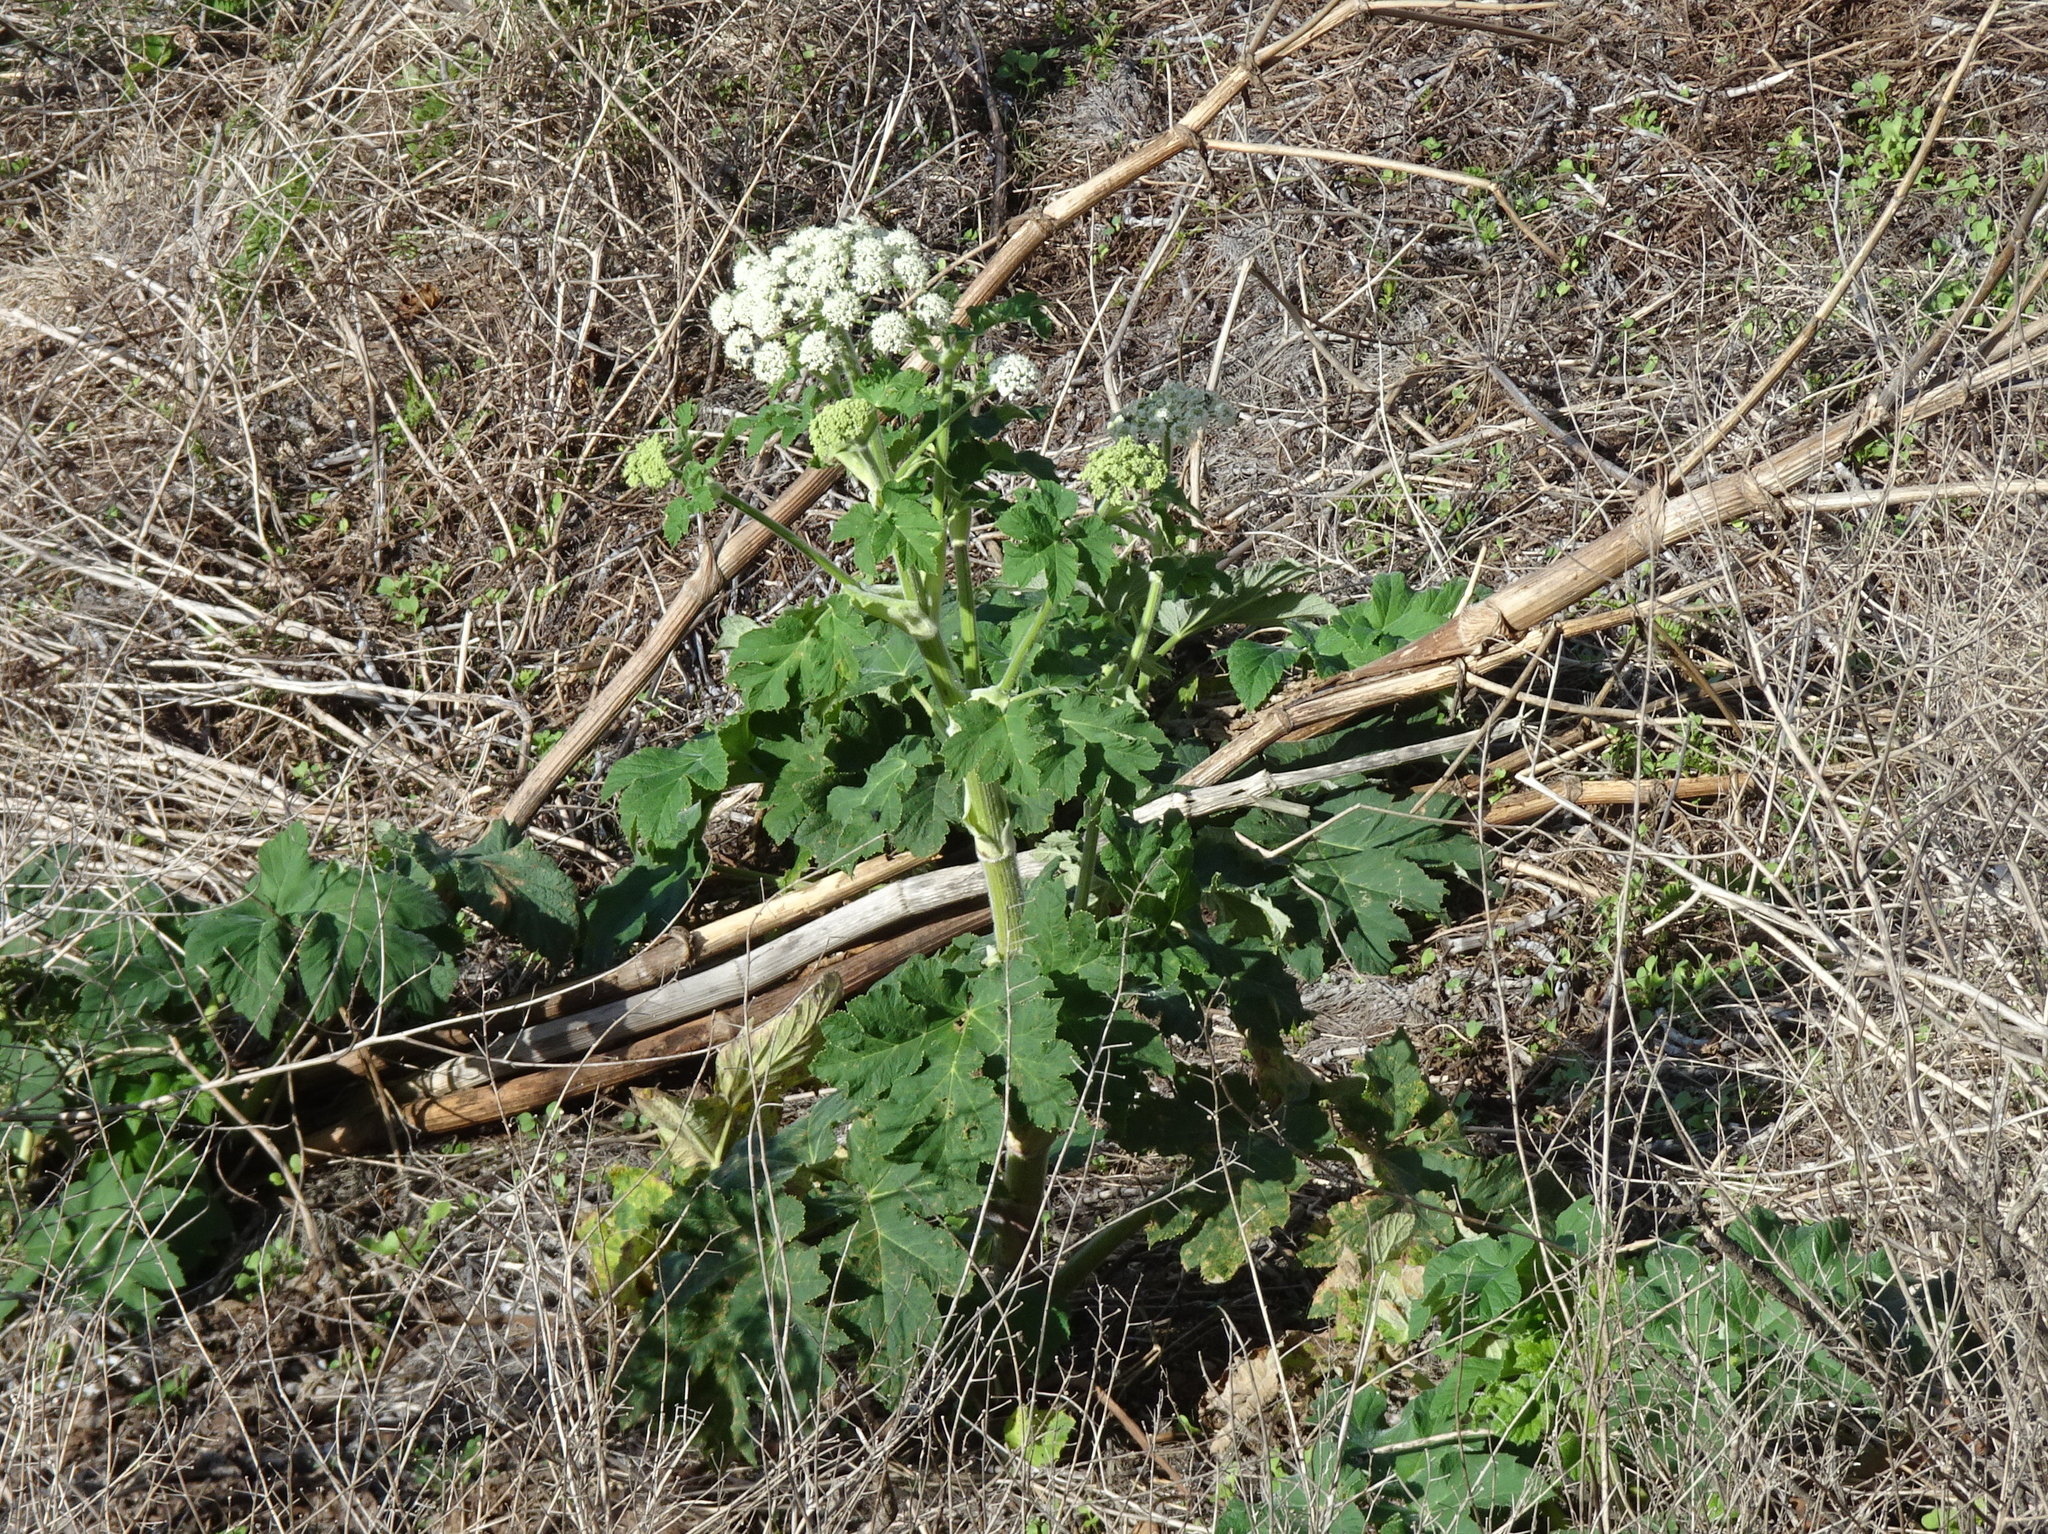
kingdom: Plantae
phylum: Tracheophyta
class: Magnoliopsida
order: Apiales
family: Apiaceae
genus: Heracleum
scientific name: Heracleum maximum
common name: American cow parsnip
